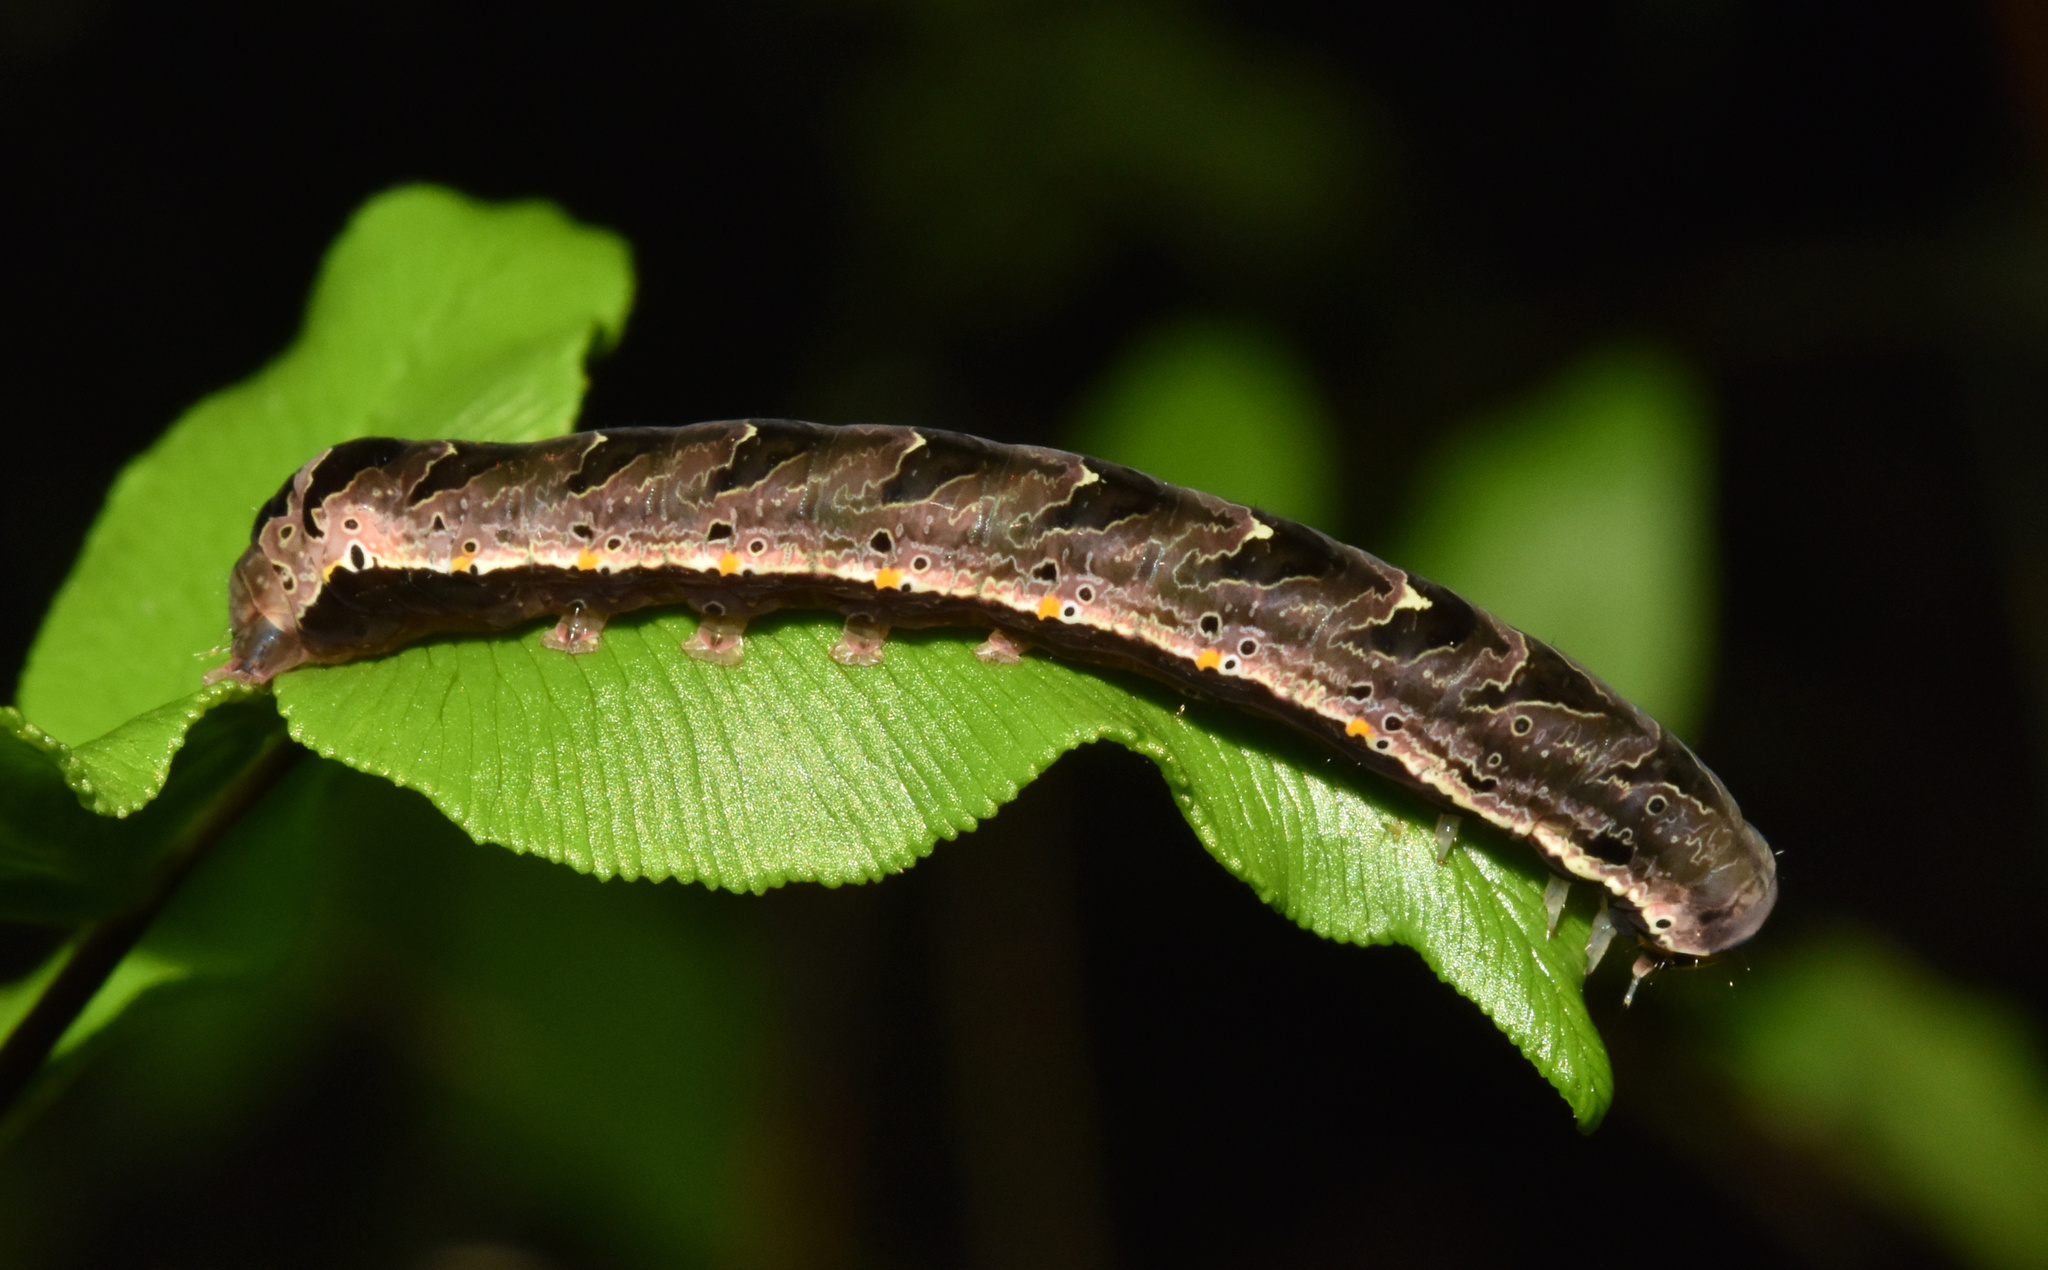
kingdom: Animalia
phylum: Arthropoda
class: Insecta
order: Lepidoptera
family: Noctuidae
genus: Callopistria
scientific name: Callopistria maillardi
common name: Cutworm
